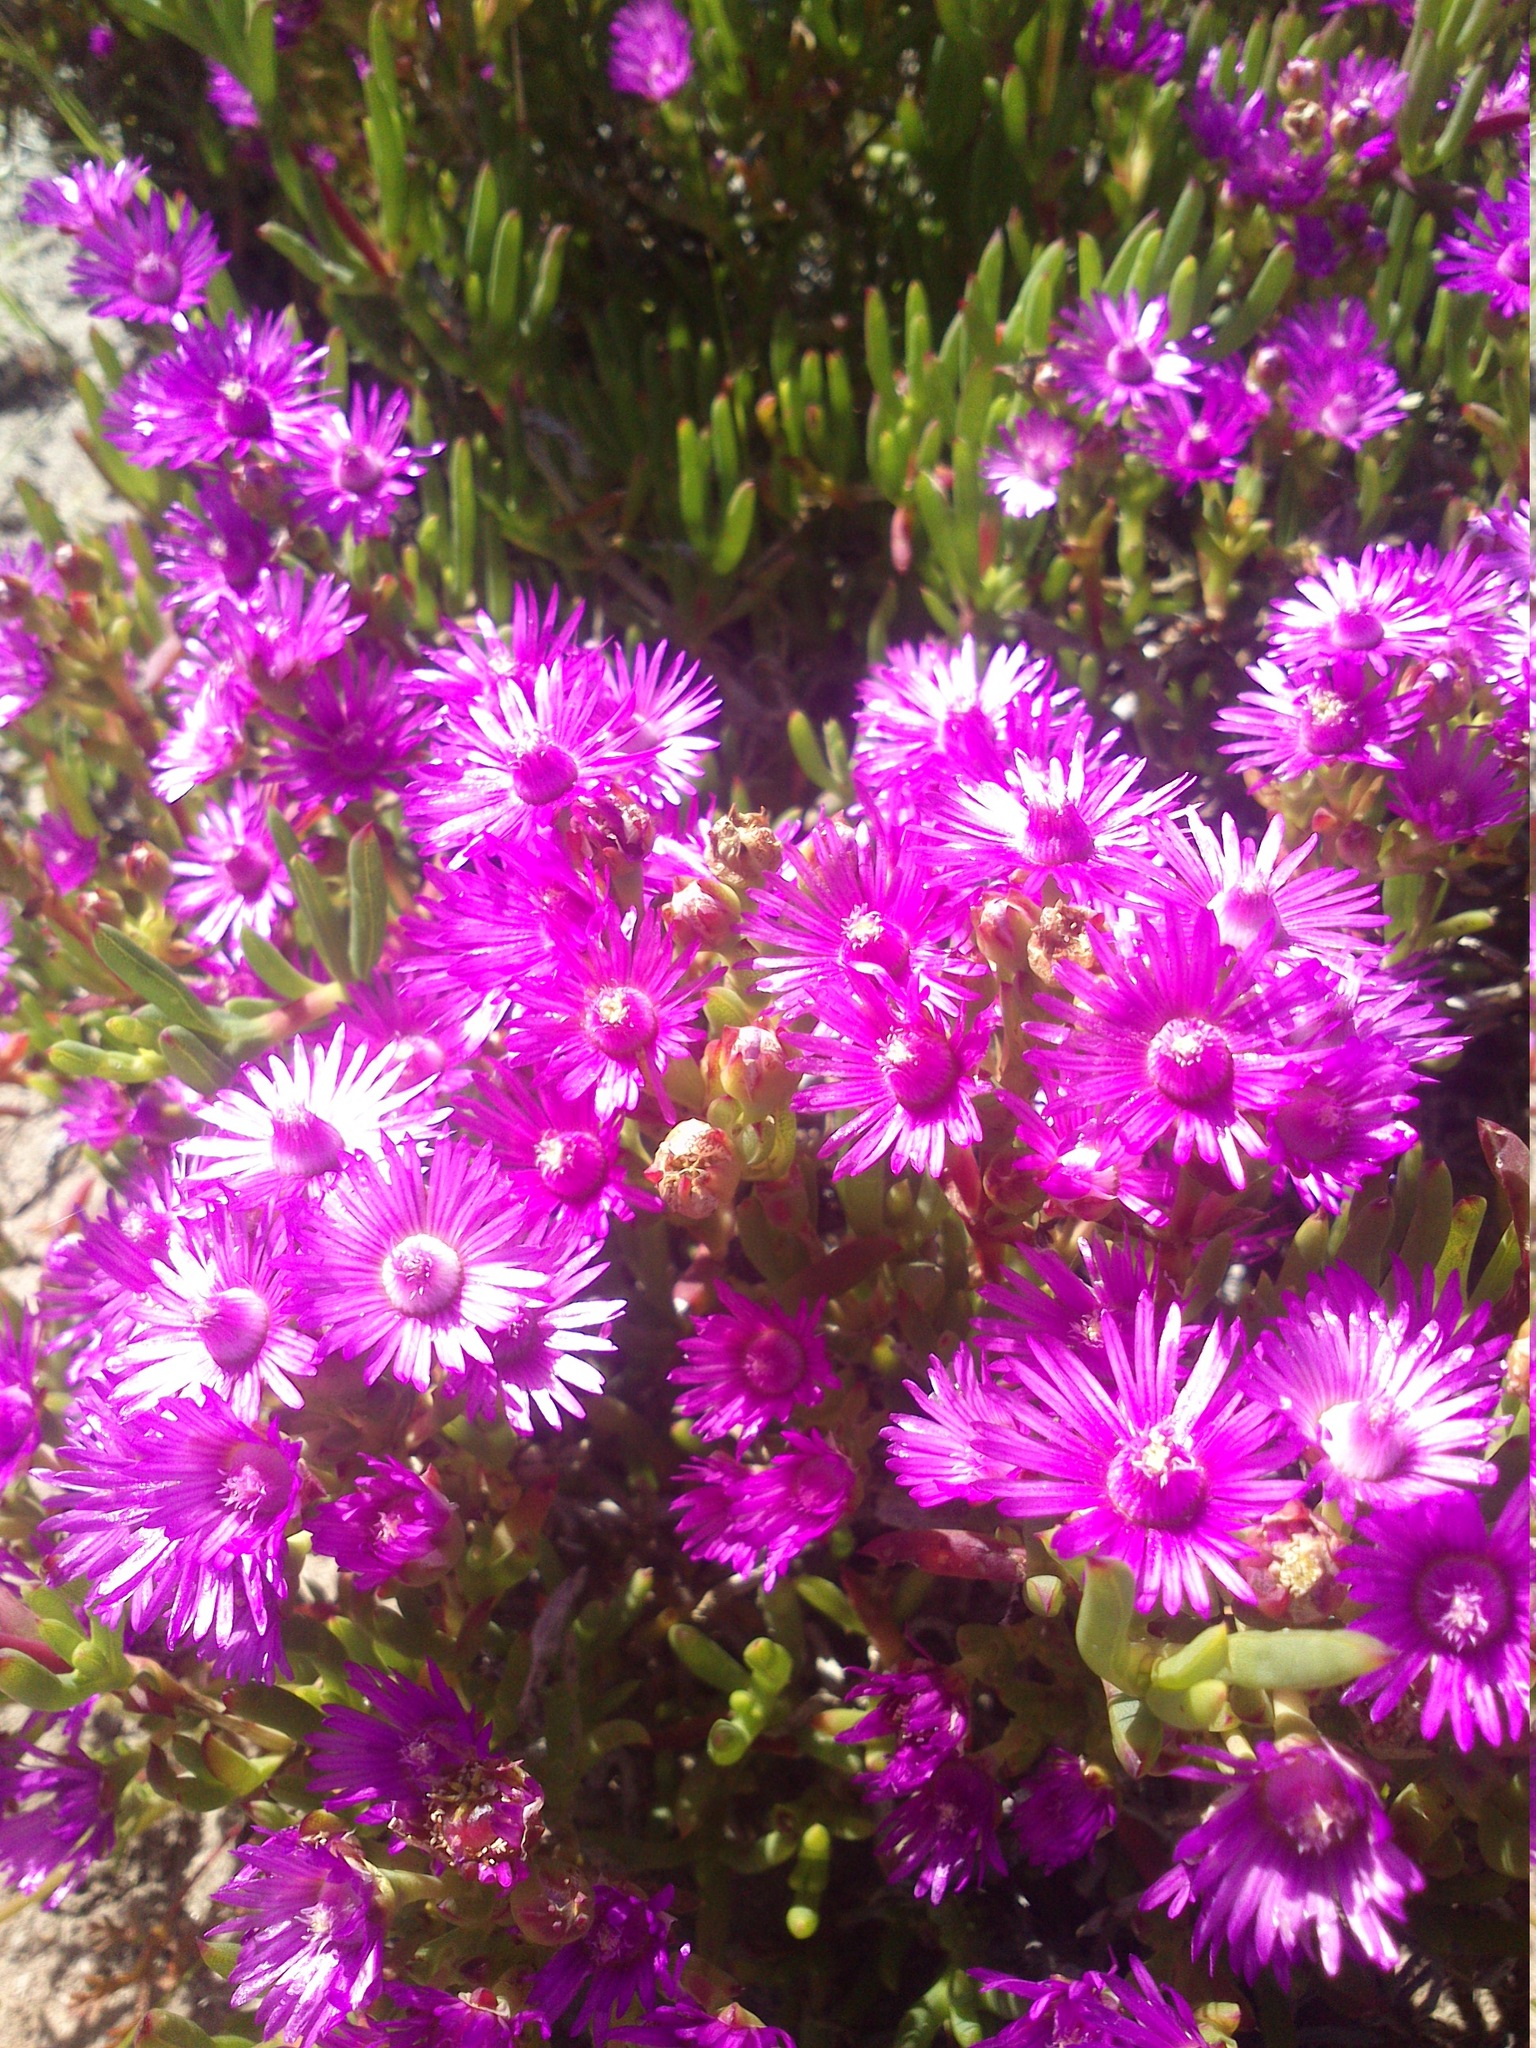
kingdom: Plantae
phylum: Tracheophyta
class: Magnoliopsida
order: Caryophyllales
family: Aizoaceae
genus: Ruschia
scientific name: Ruschia macowanii
